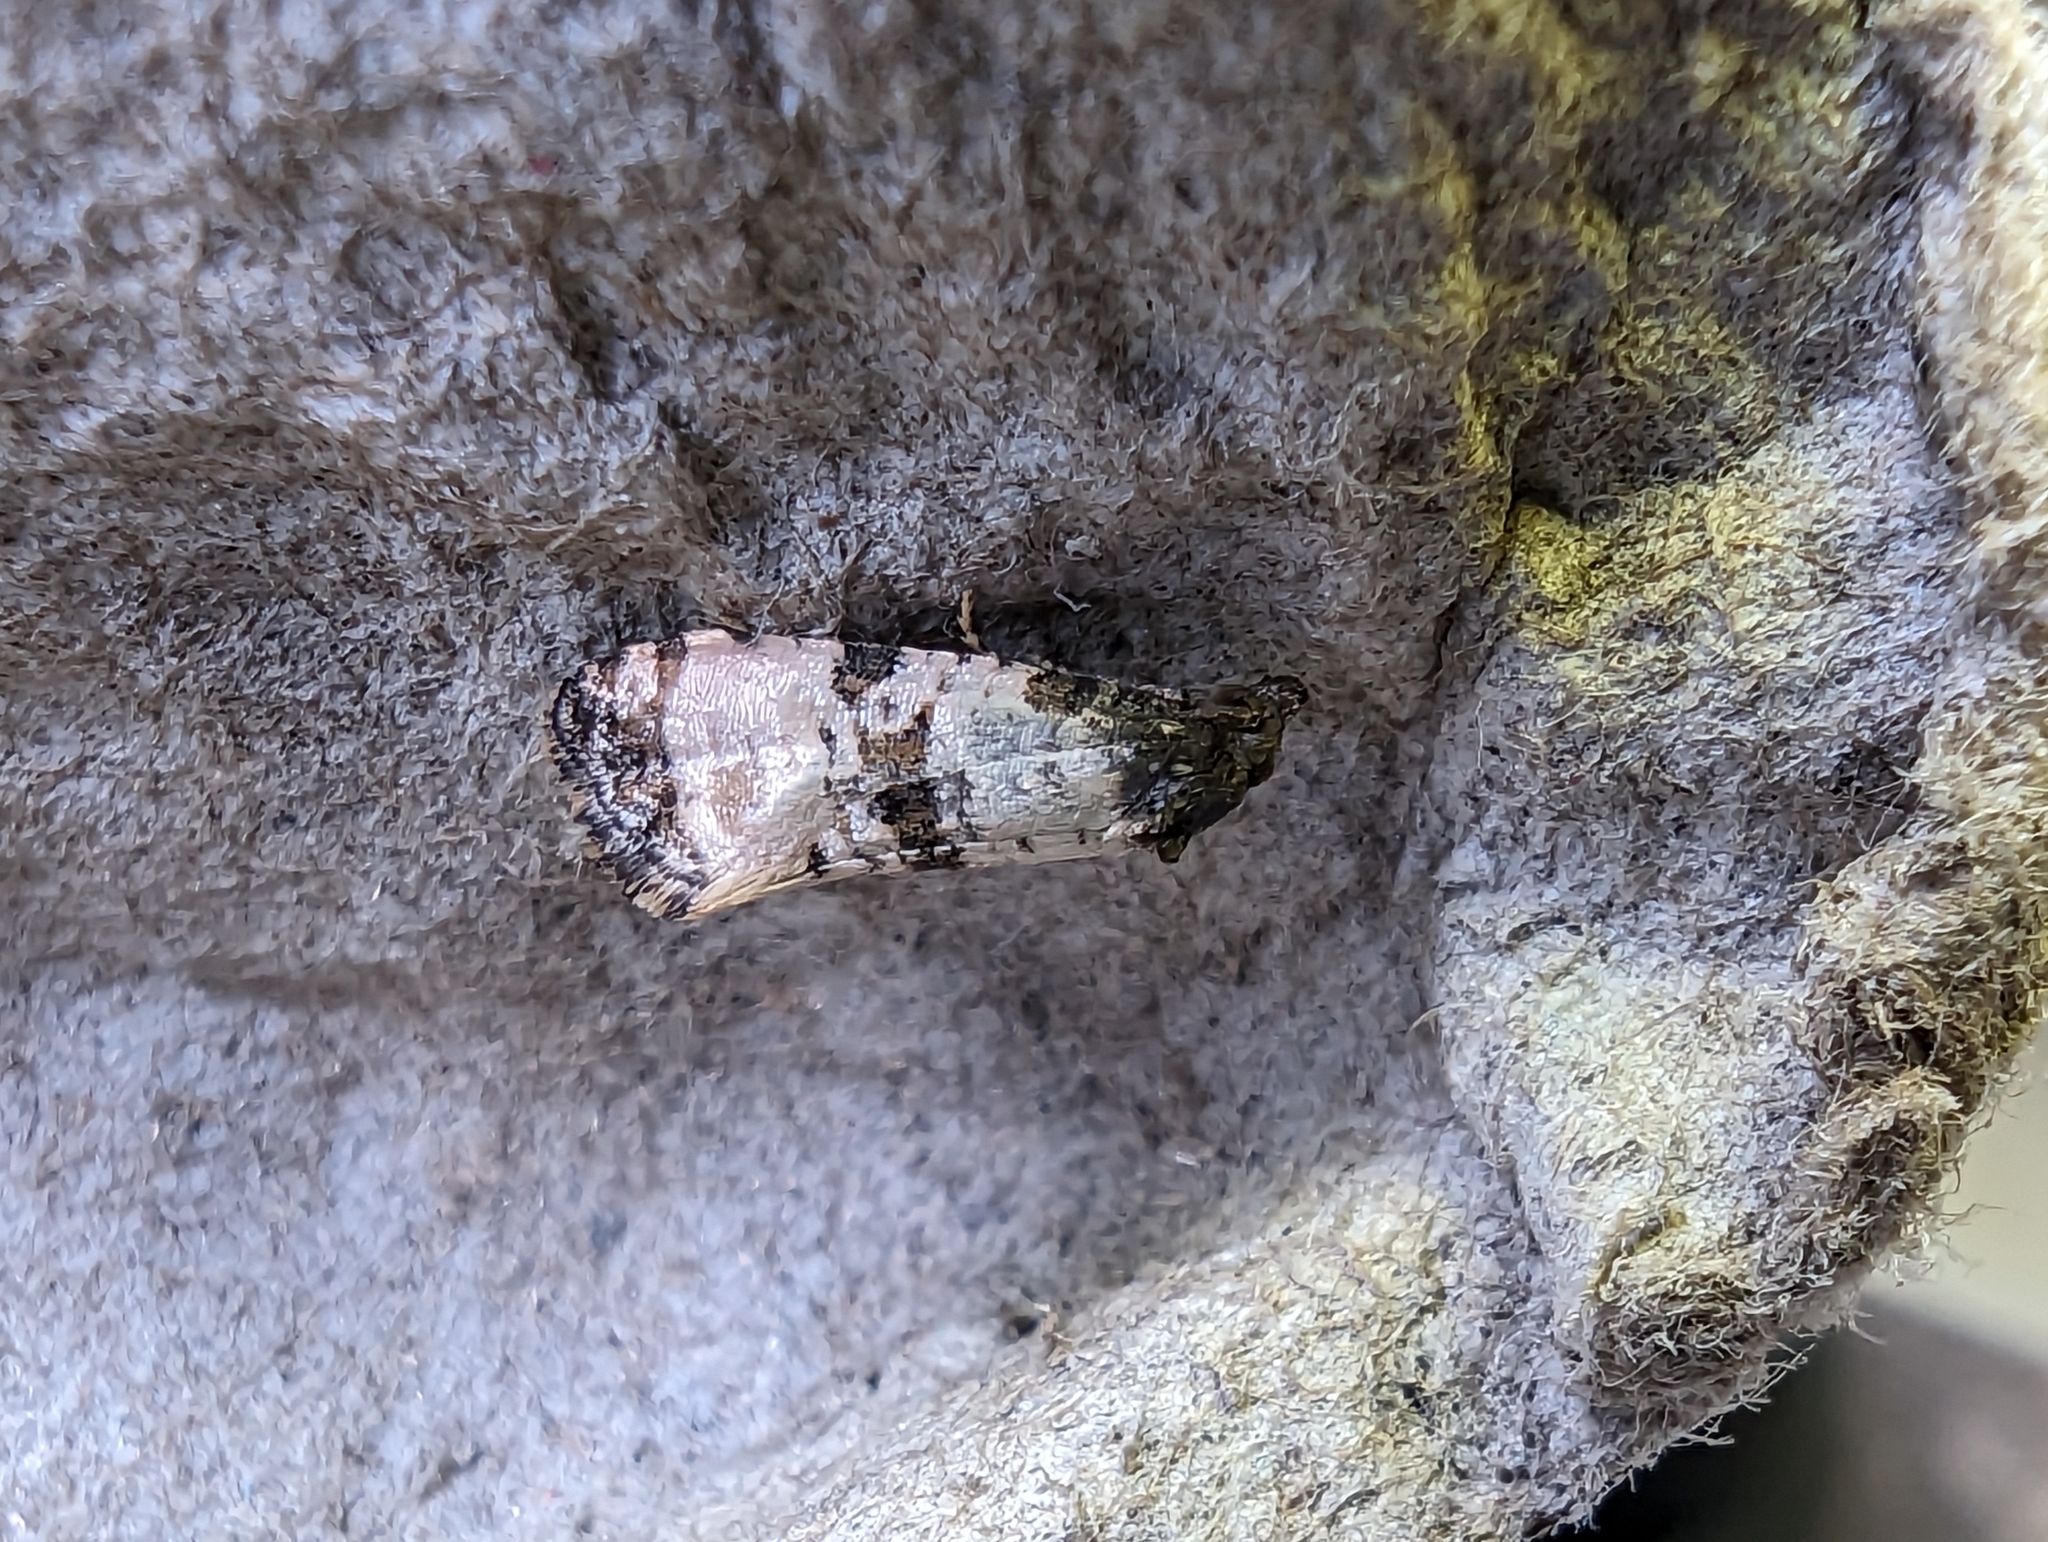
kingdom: Animalia
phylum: Arthropoda
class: Insecta
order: Lepidoptera
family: Tortricidae
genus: Cochylis
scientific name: Cochylis atricapitana
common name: Tortricid moth
